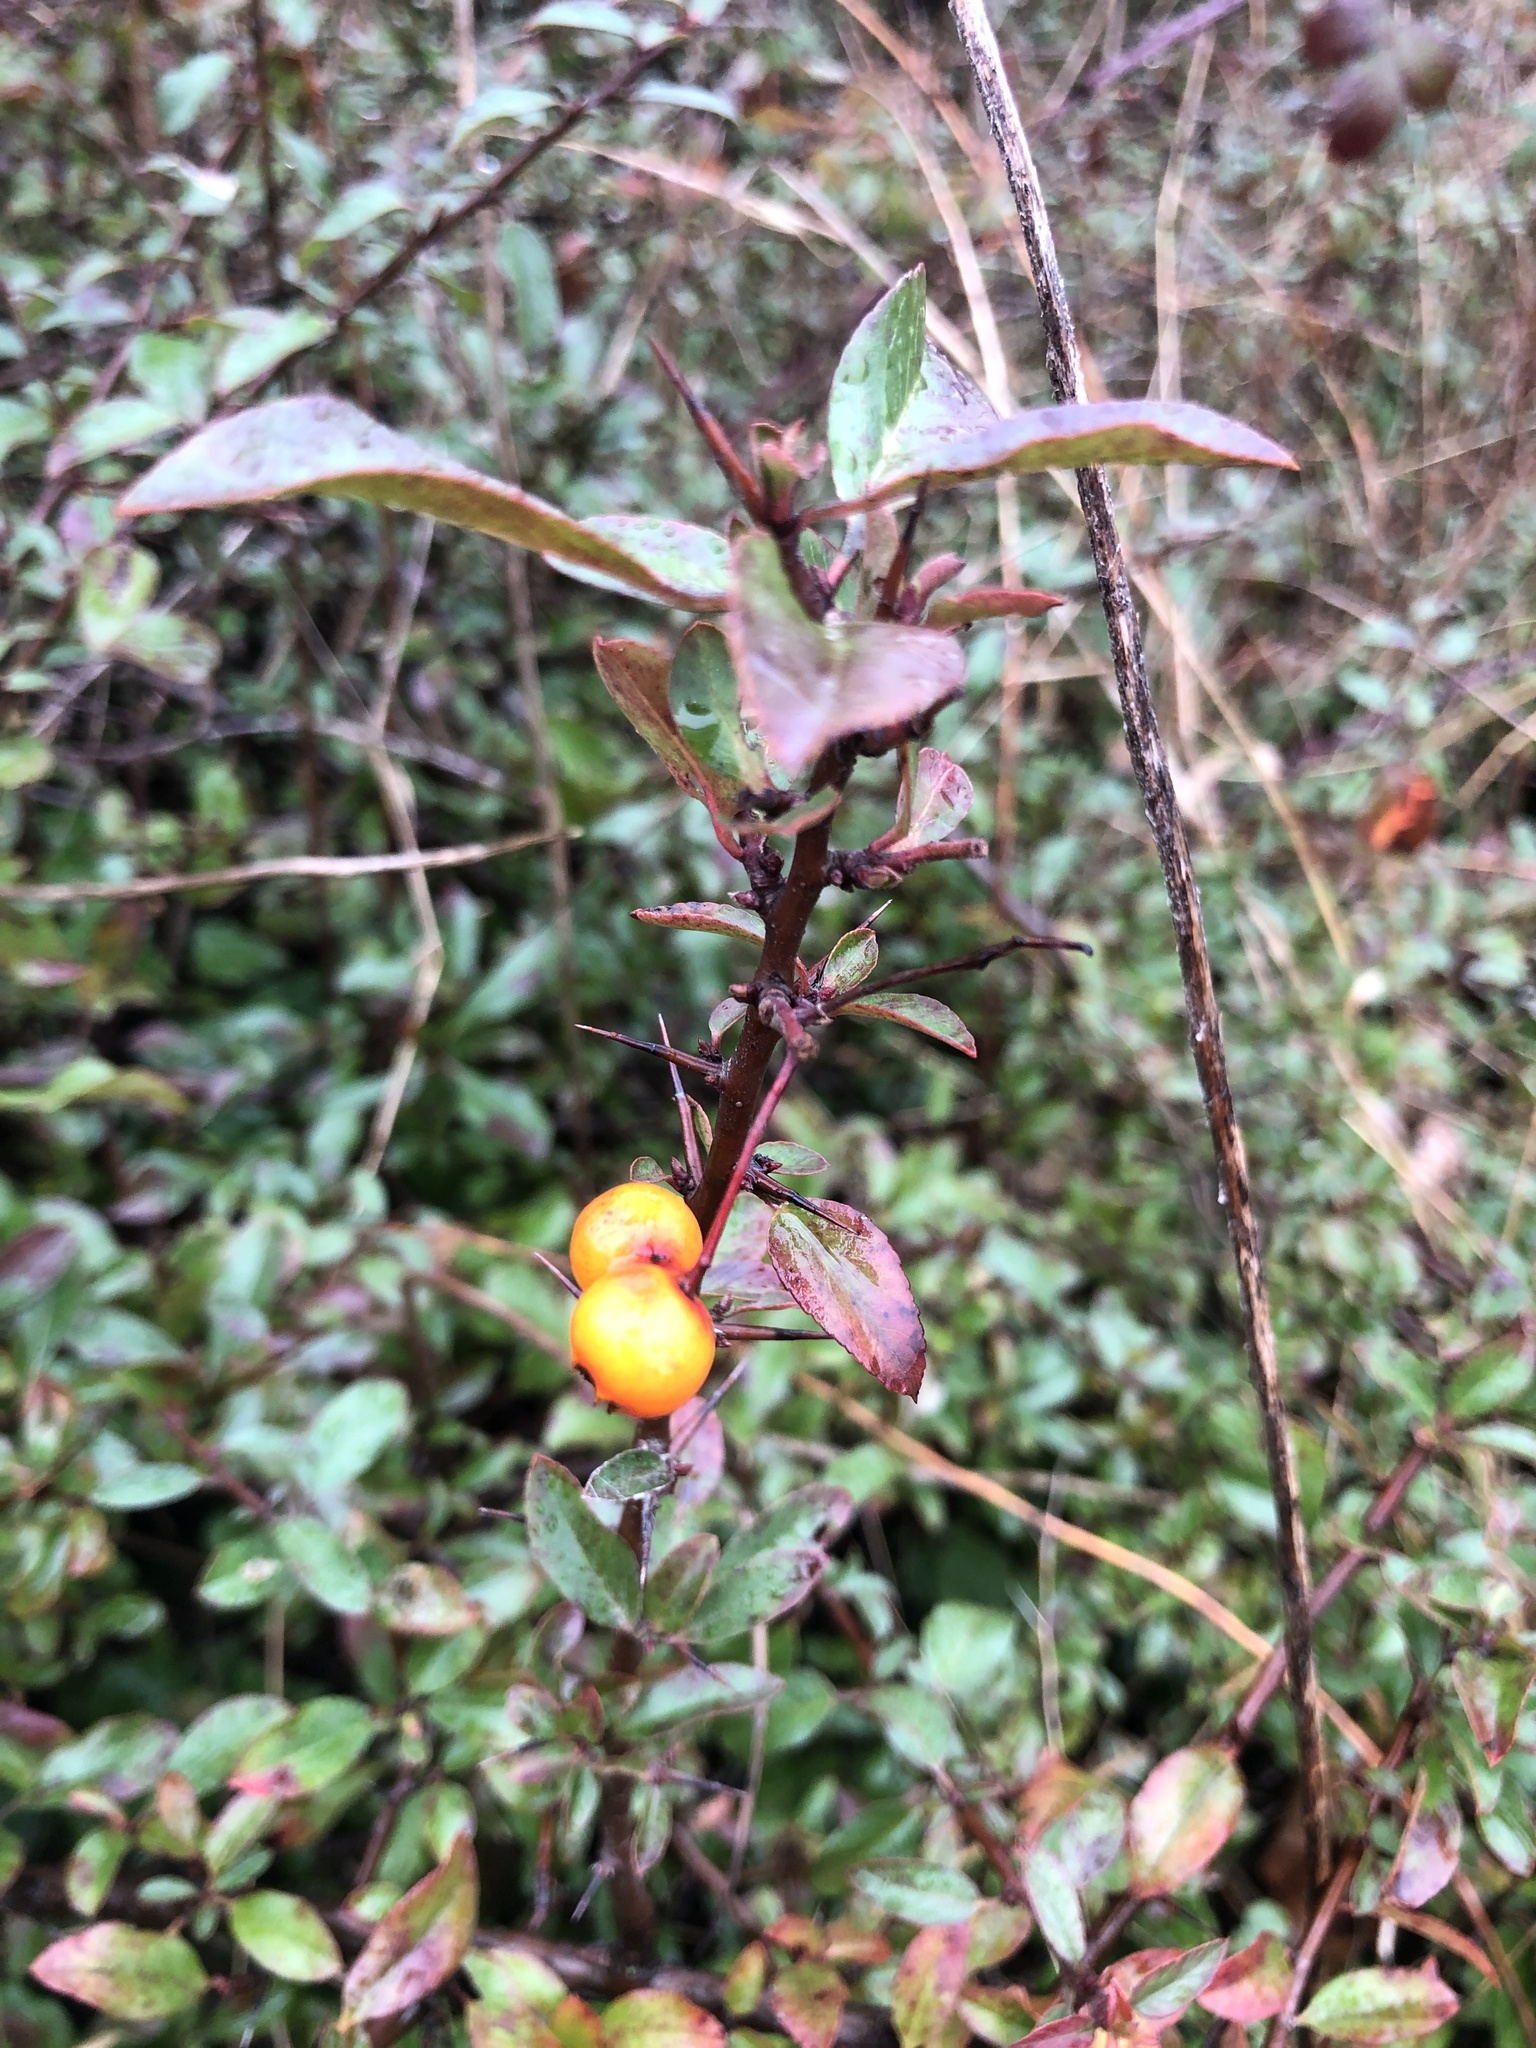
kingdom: Plantae
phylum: Tracheophyta
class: Magnoliopsida
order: Rosales
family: Rosaceae
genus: Pyracantha
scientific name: Pyracantha coccinea
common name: Firethorn
